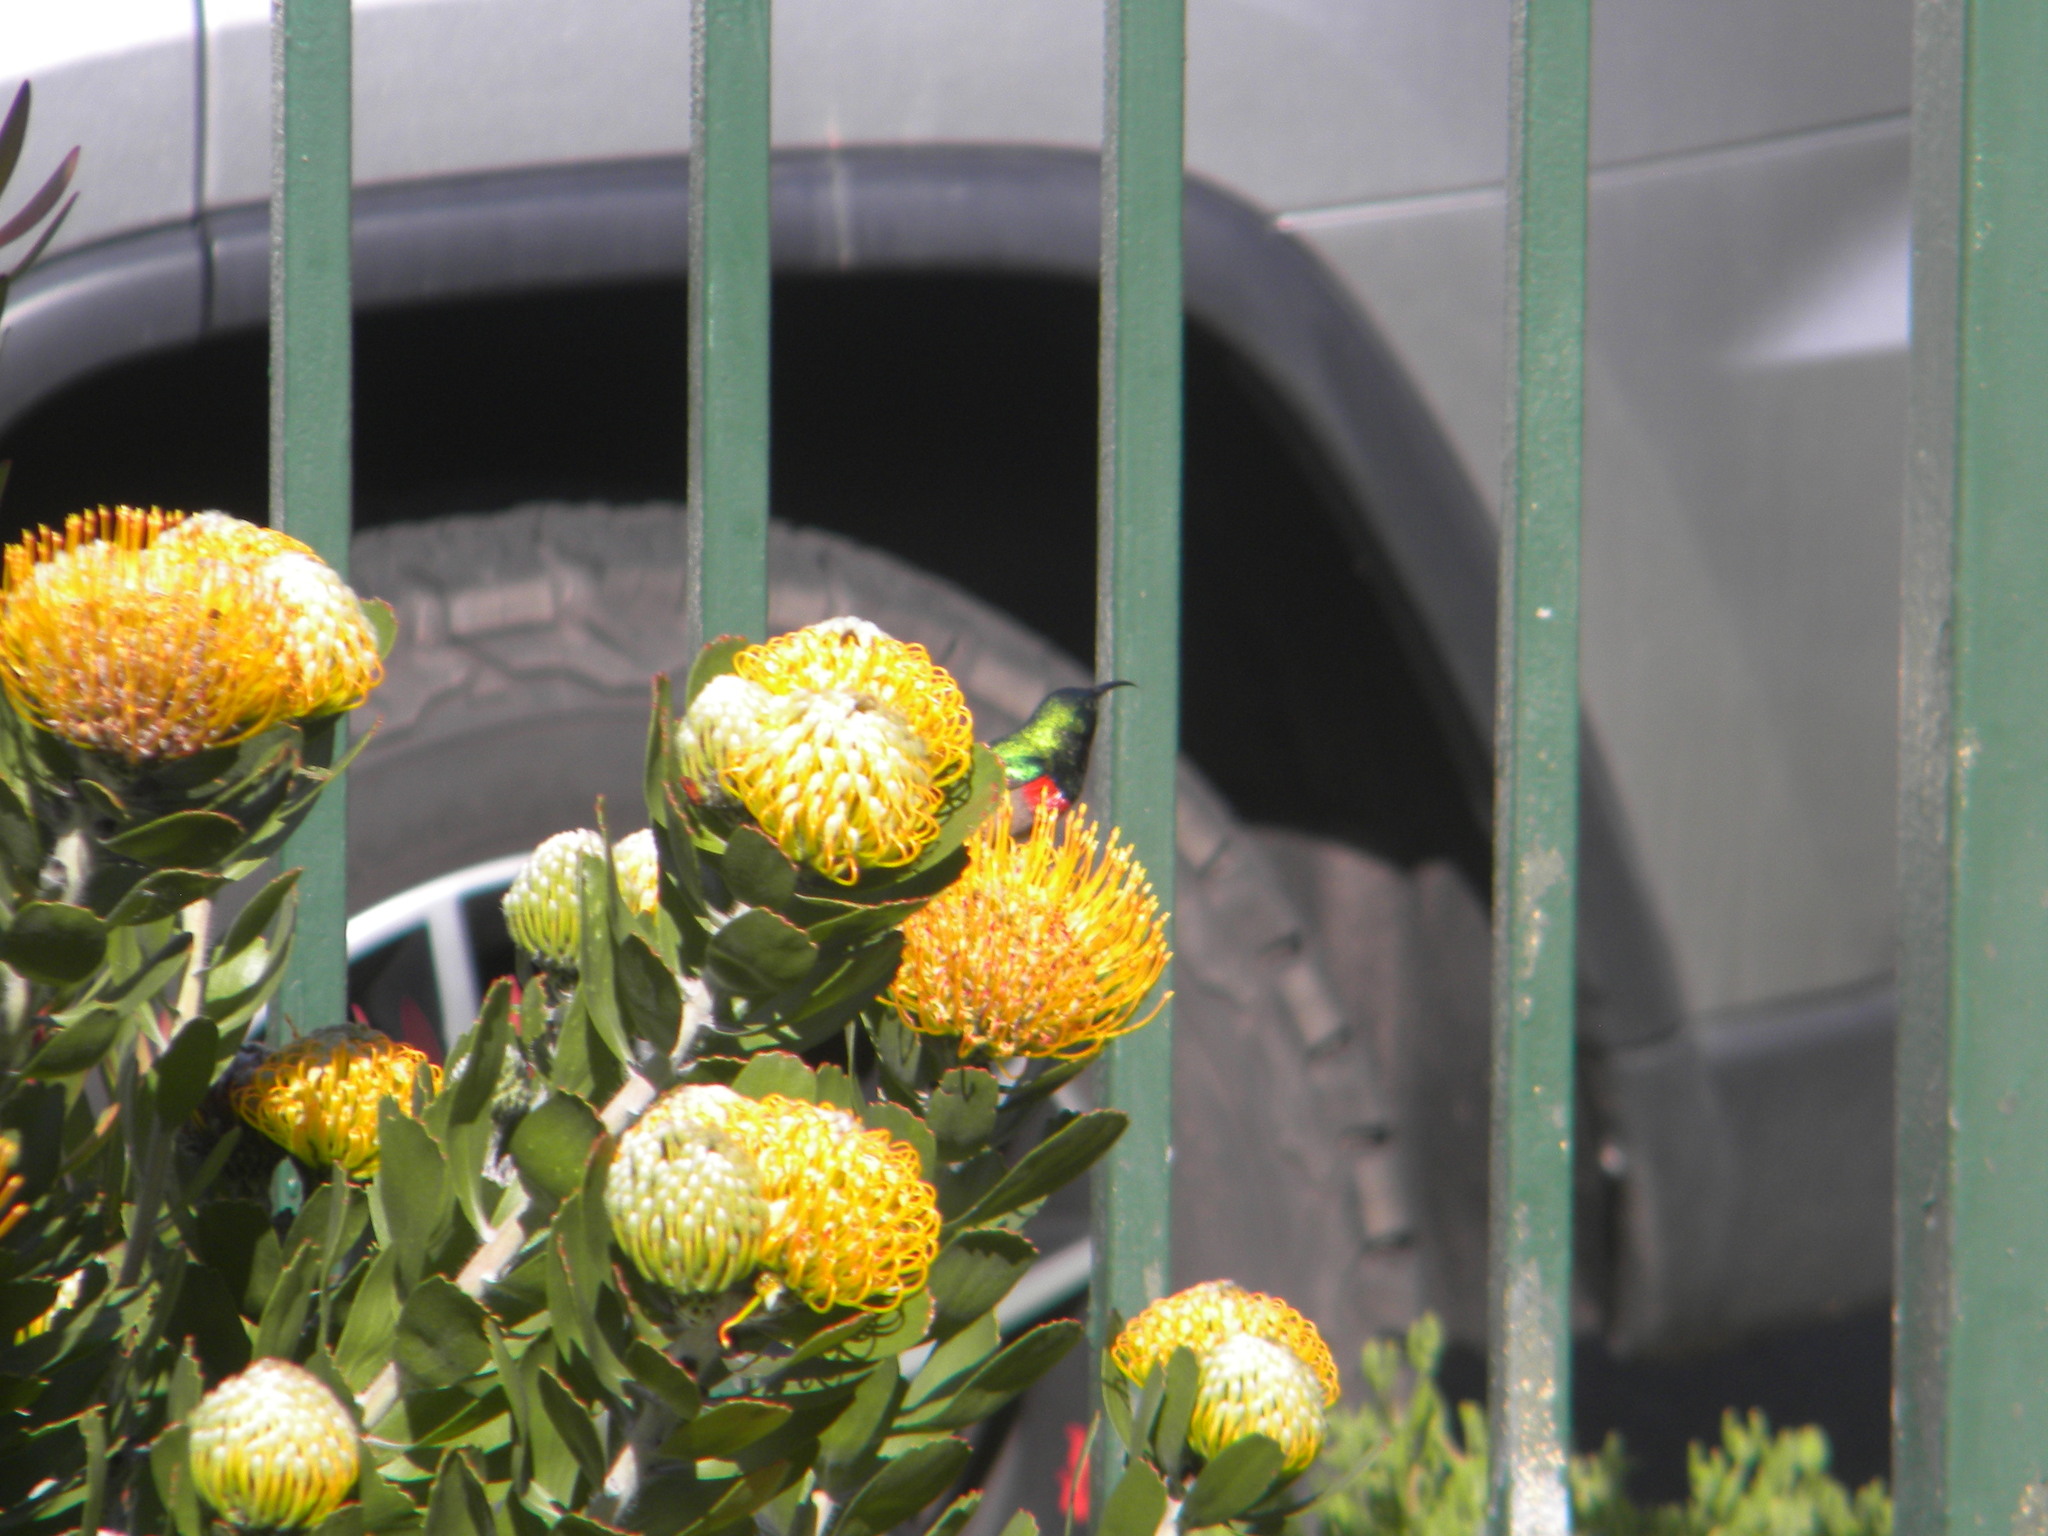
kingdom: Animalia
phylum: Chordata
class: Aves
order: Passeriformes
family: Nectariniidae
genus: Cinnyris
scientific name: Cinnyris chalybeus
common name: Southern double-collared sunbird
